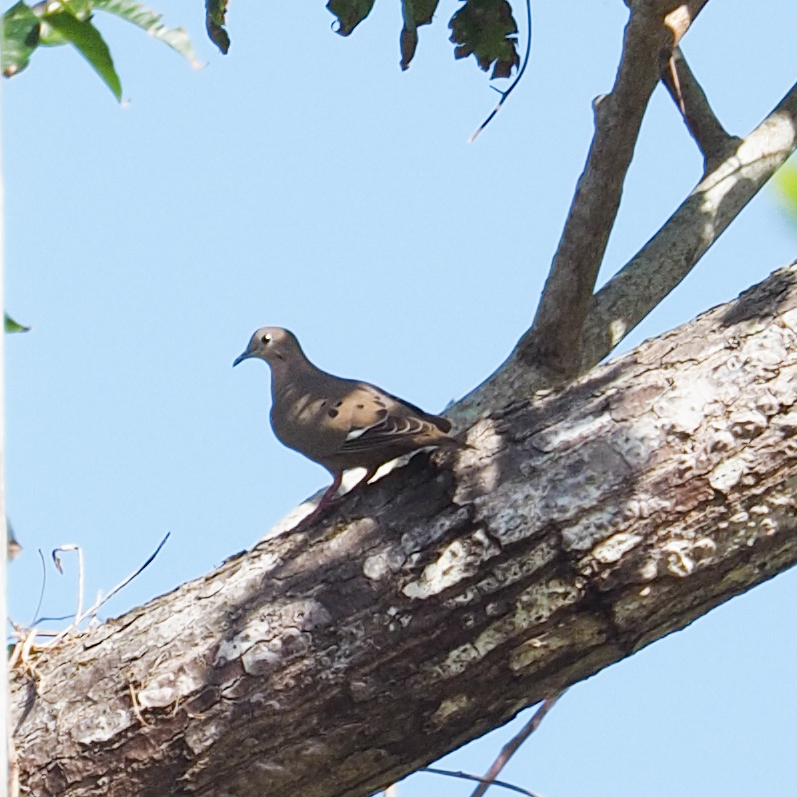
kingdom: Animalia
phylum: Chordata
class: Aves
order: Columbiformes
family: Columbidae
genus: Zenaida
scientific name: Zenaida aurita
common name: Zenaida dove
